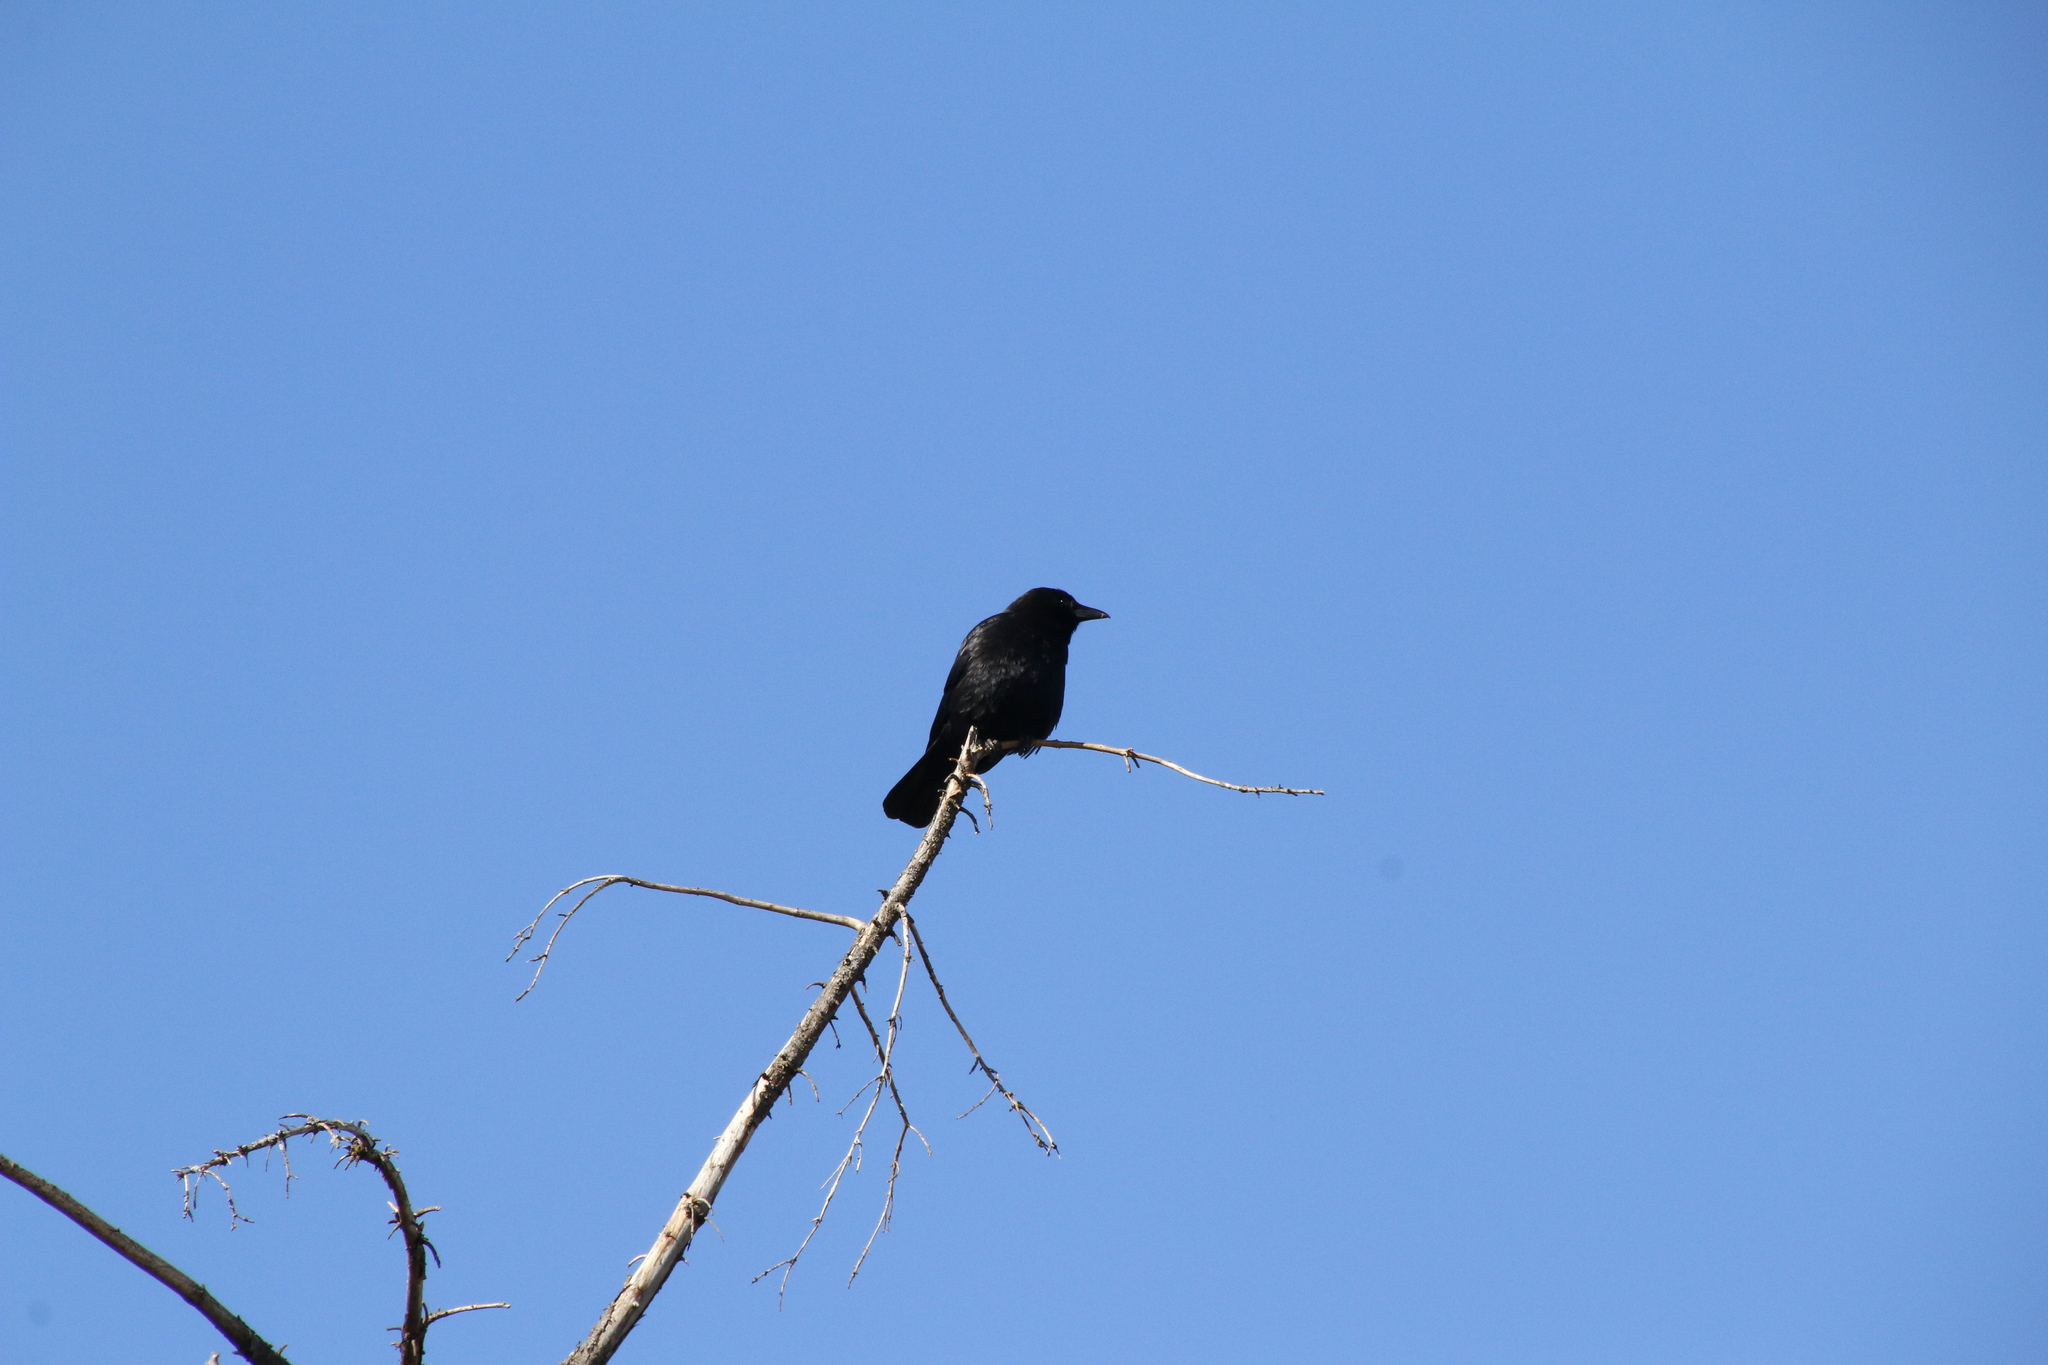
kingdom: Animalia
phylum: Chordata
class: Aves
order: Passeriformes
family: Corvidae
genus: Corvus
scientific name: Corvus brachyrhynchos
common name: American crow
